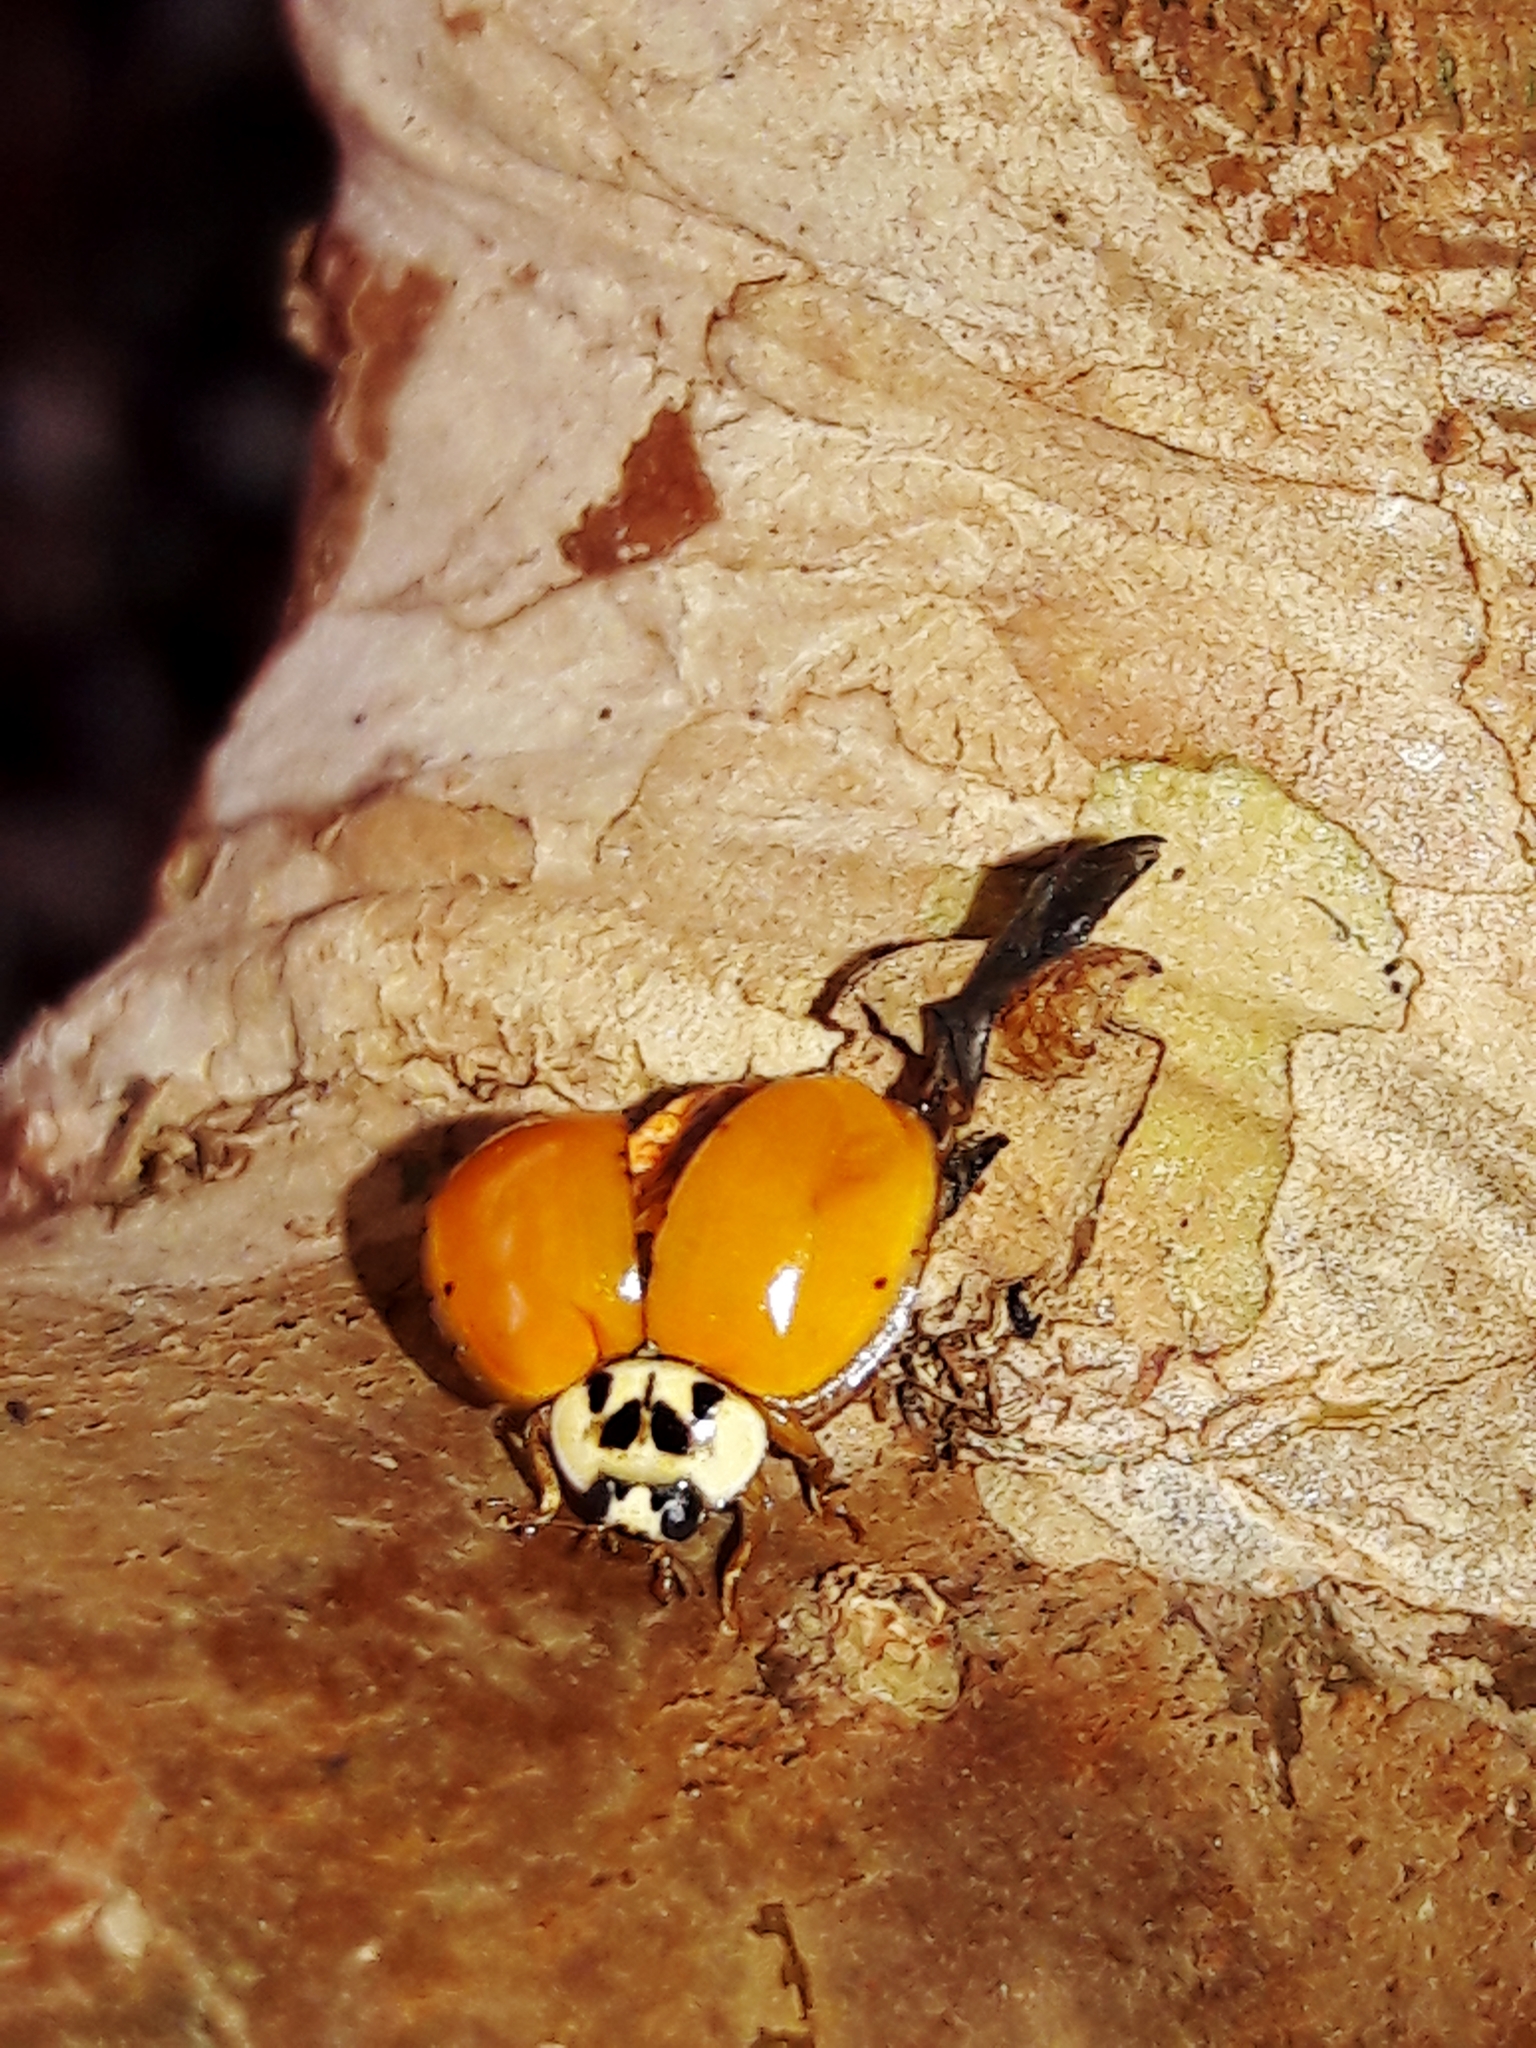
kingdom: Animalia
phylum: Arthropoda
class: Insecta
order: Coleoptera
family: Coccinellidae
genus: Harmonia
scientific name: Harmonia axyridis
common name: Harlequin ladybird
